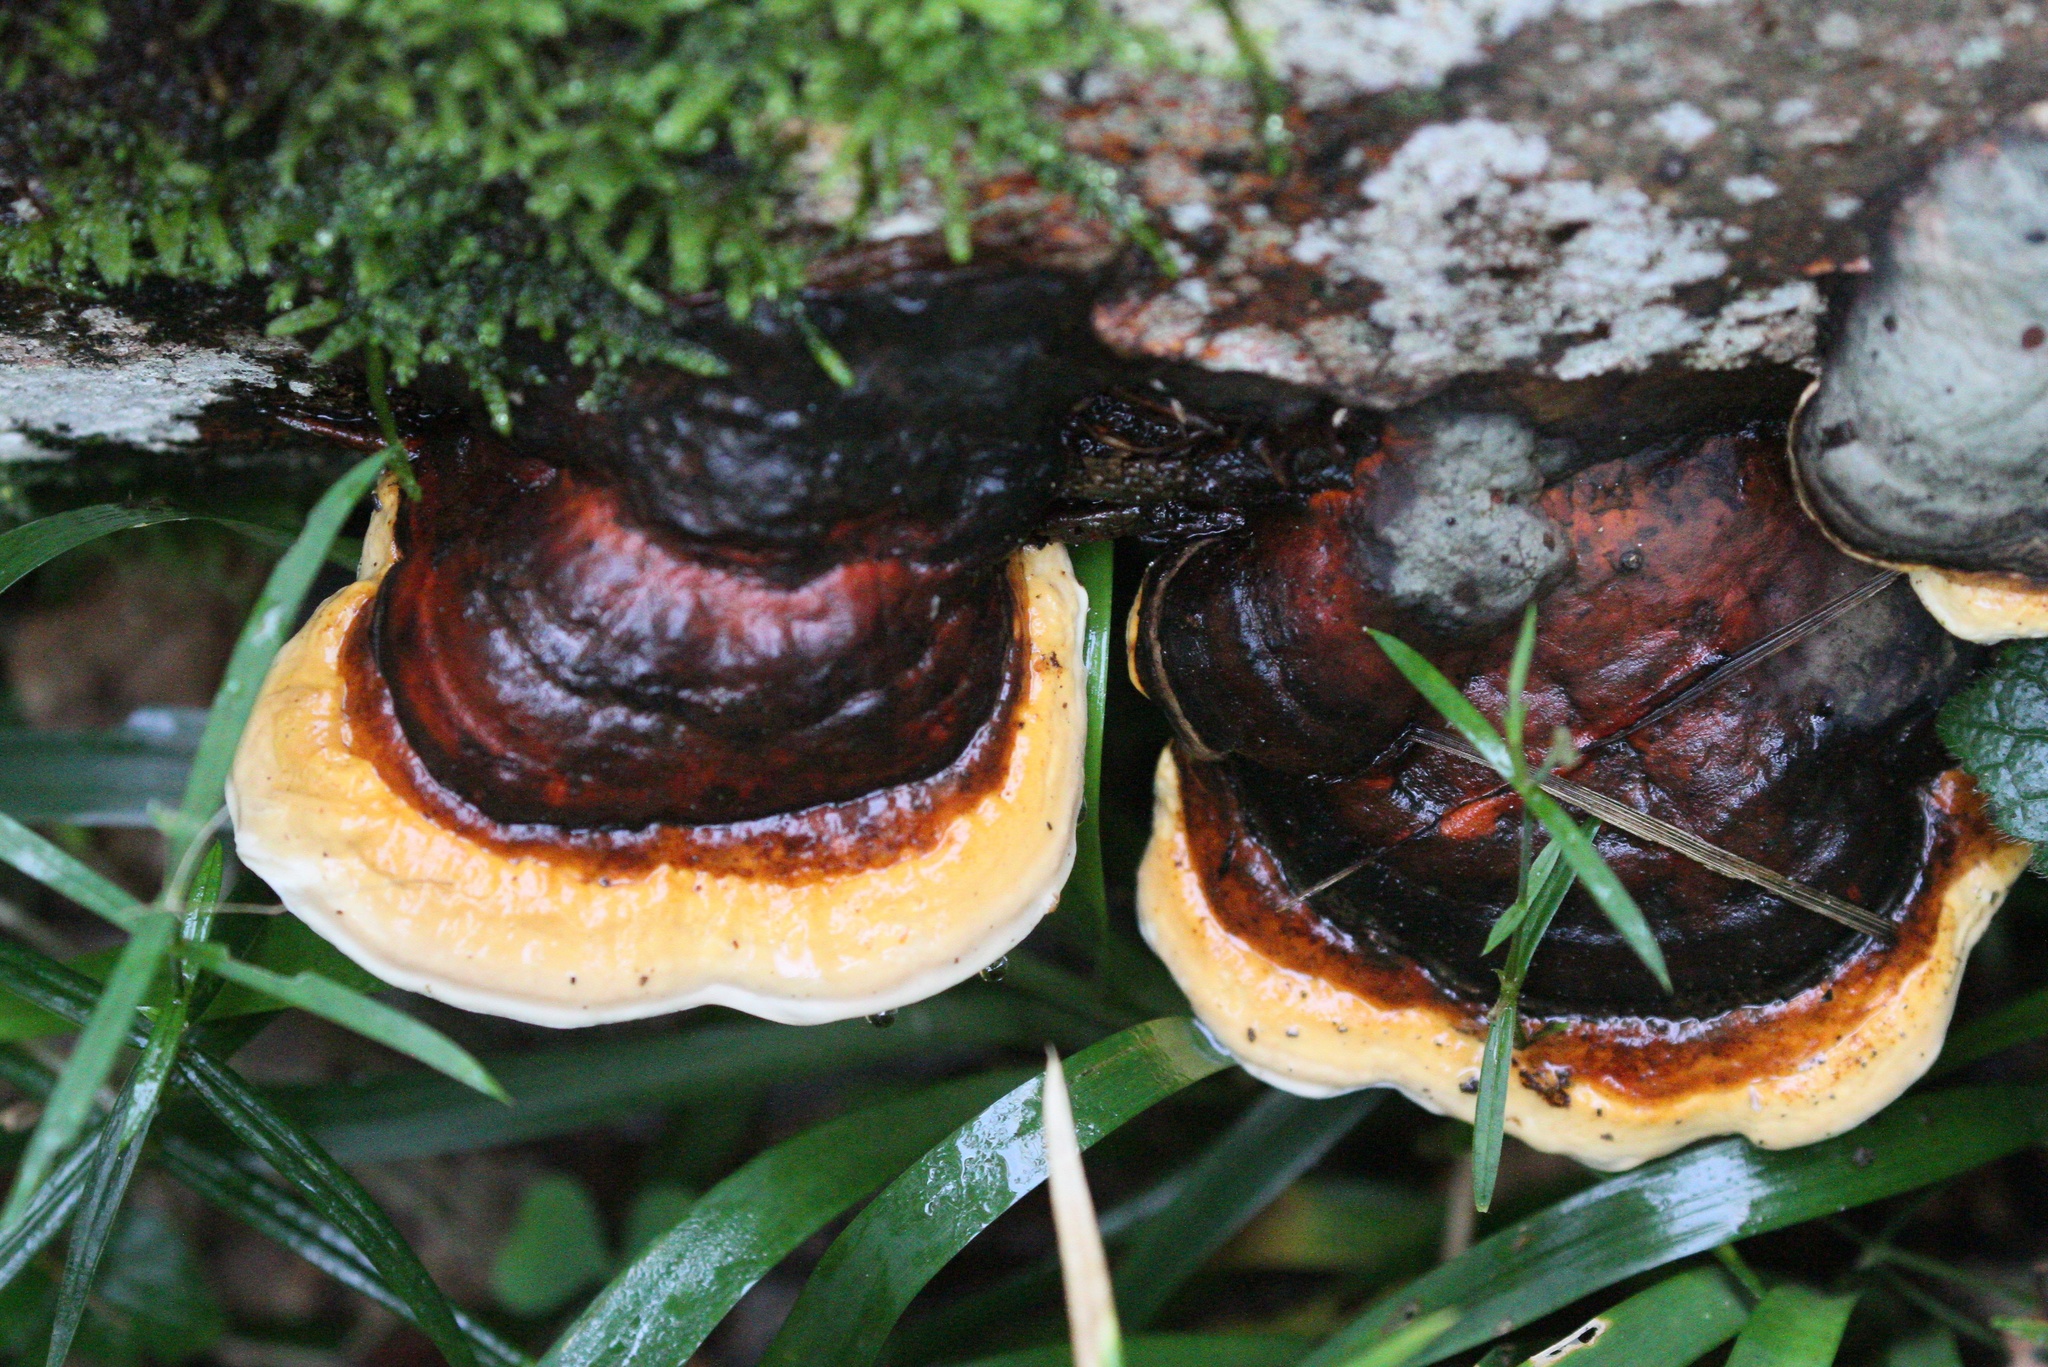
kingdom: Fungi
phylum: Basidiomycota
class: Agaricomycetes
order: Polyporales
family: Fomitopsidaceae
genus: Fomitopsis
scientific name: Fomitopsis pinicola
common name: Red-belted bracket
